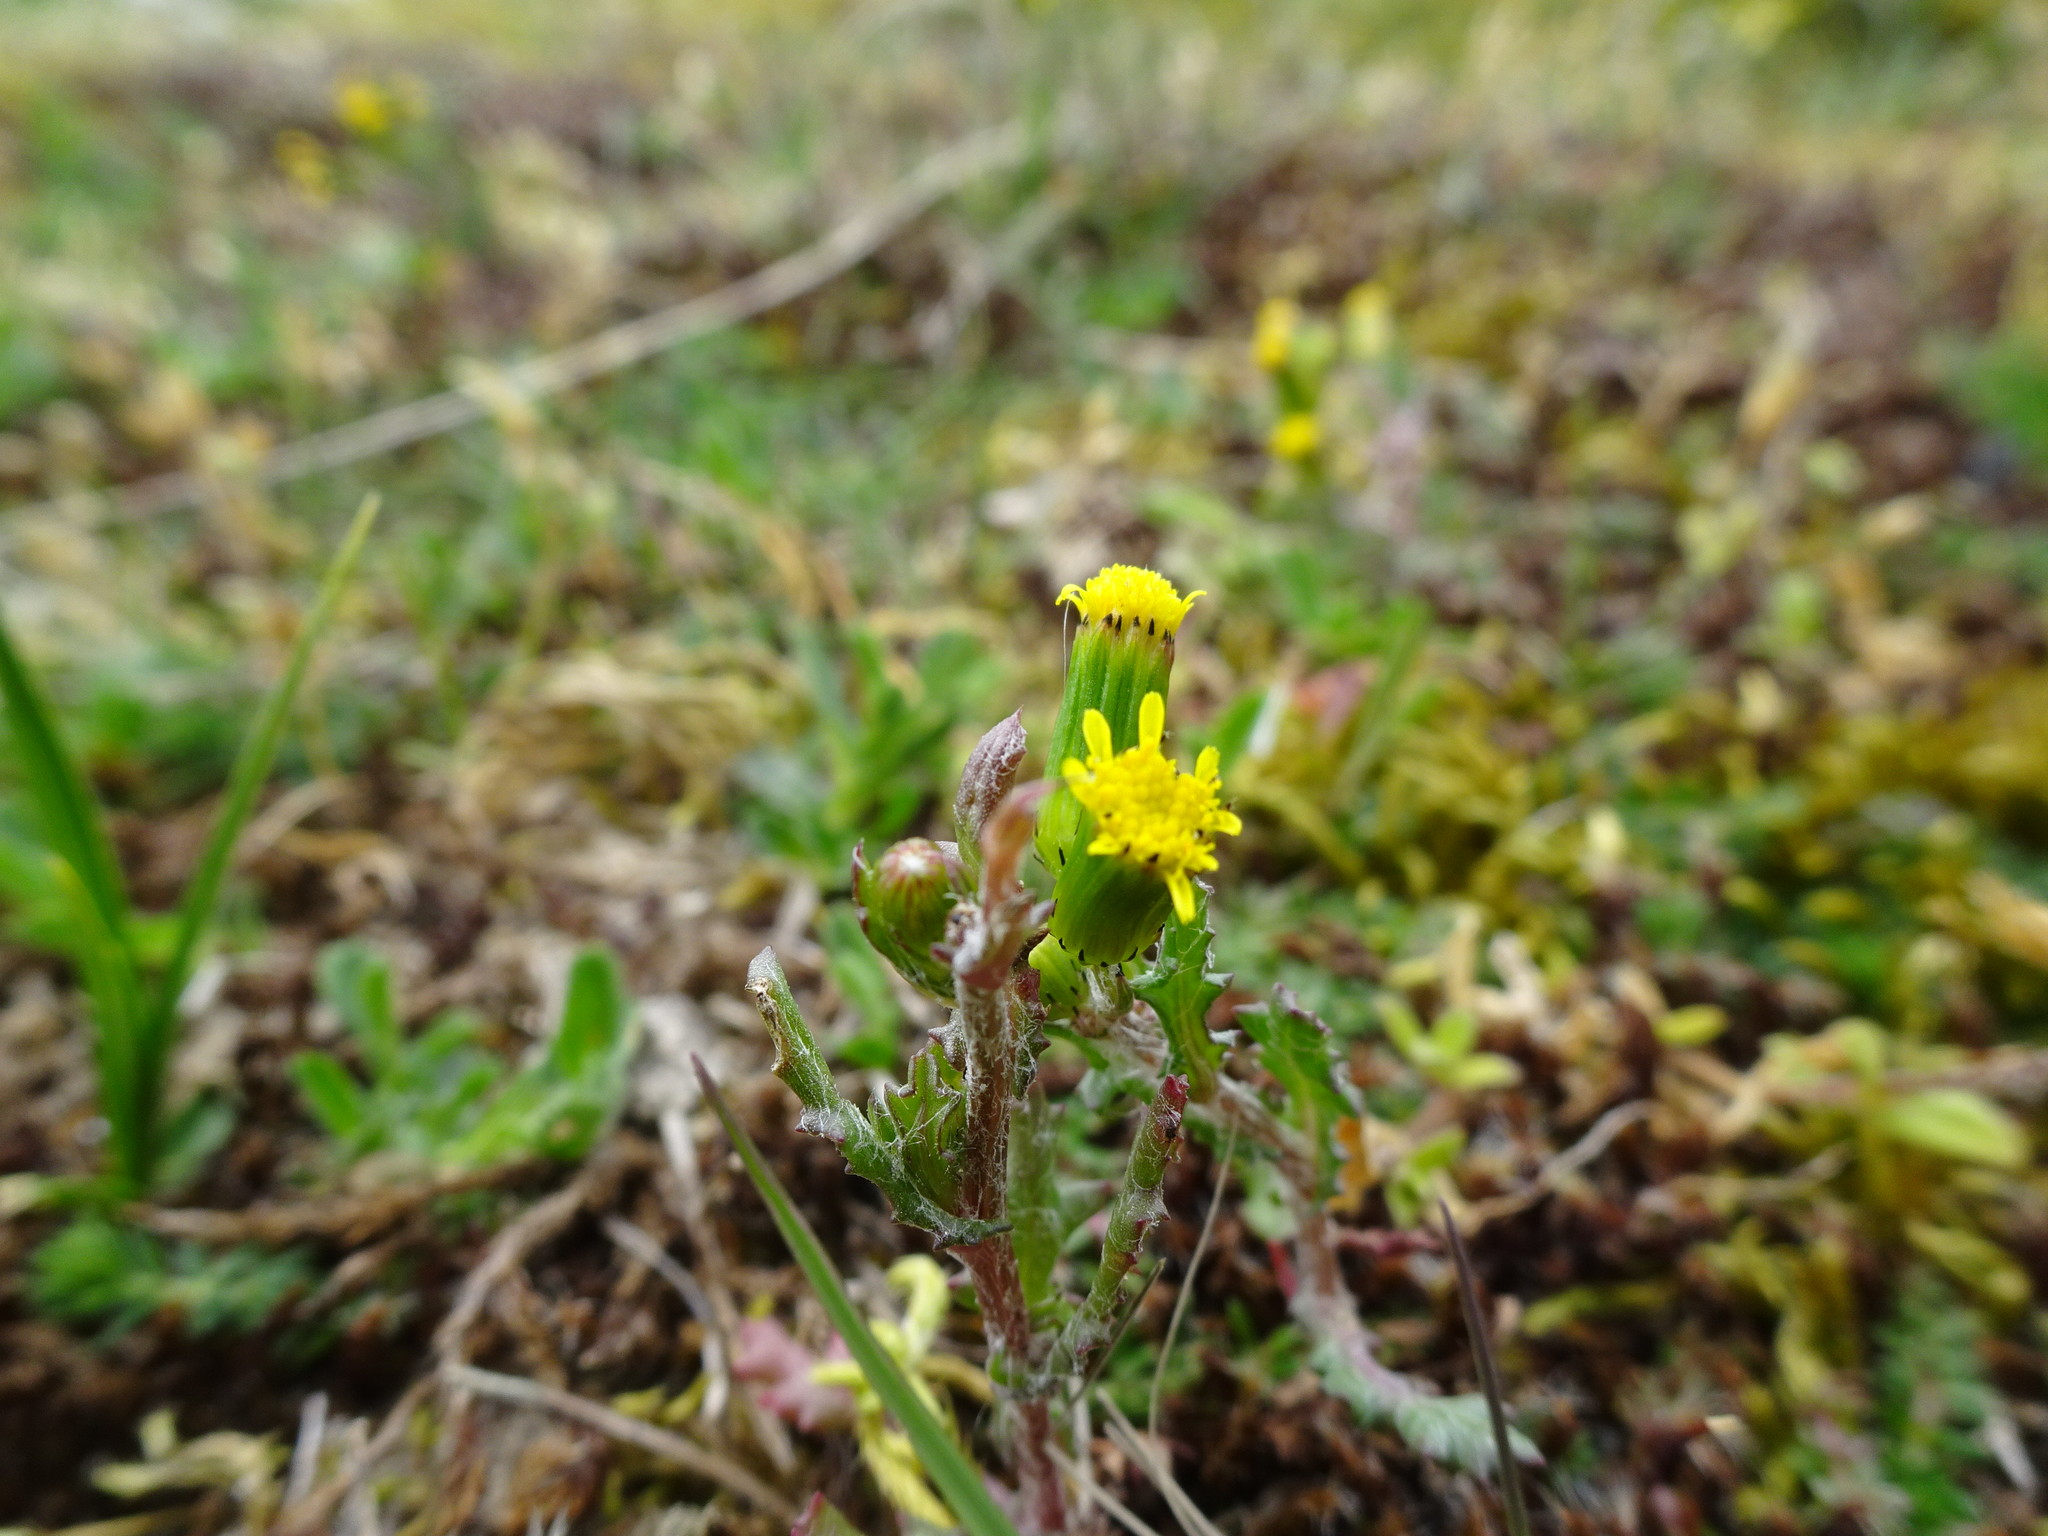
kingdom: Plantae
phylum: Tracheophyta
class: Magnoliopsida
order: Asterales
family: Asteraceae
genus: Senecio
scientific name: Senecio vulgaris
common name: Old-man-in-the-spring
